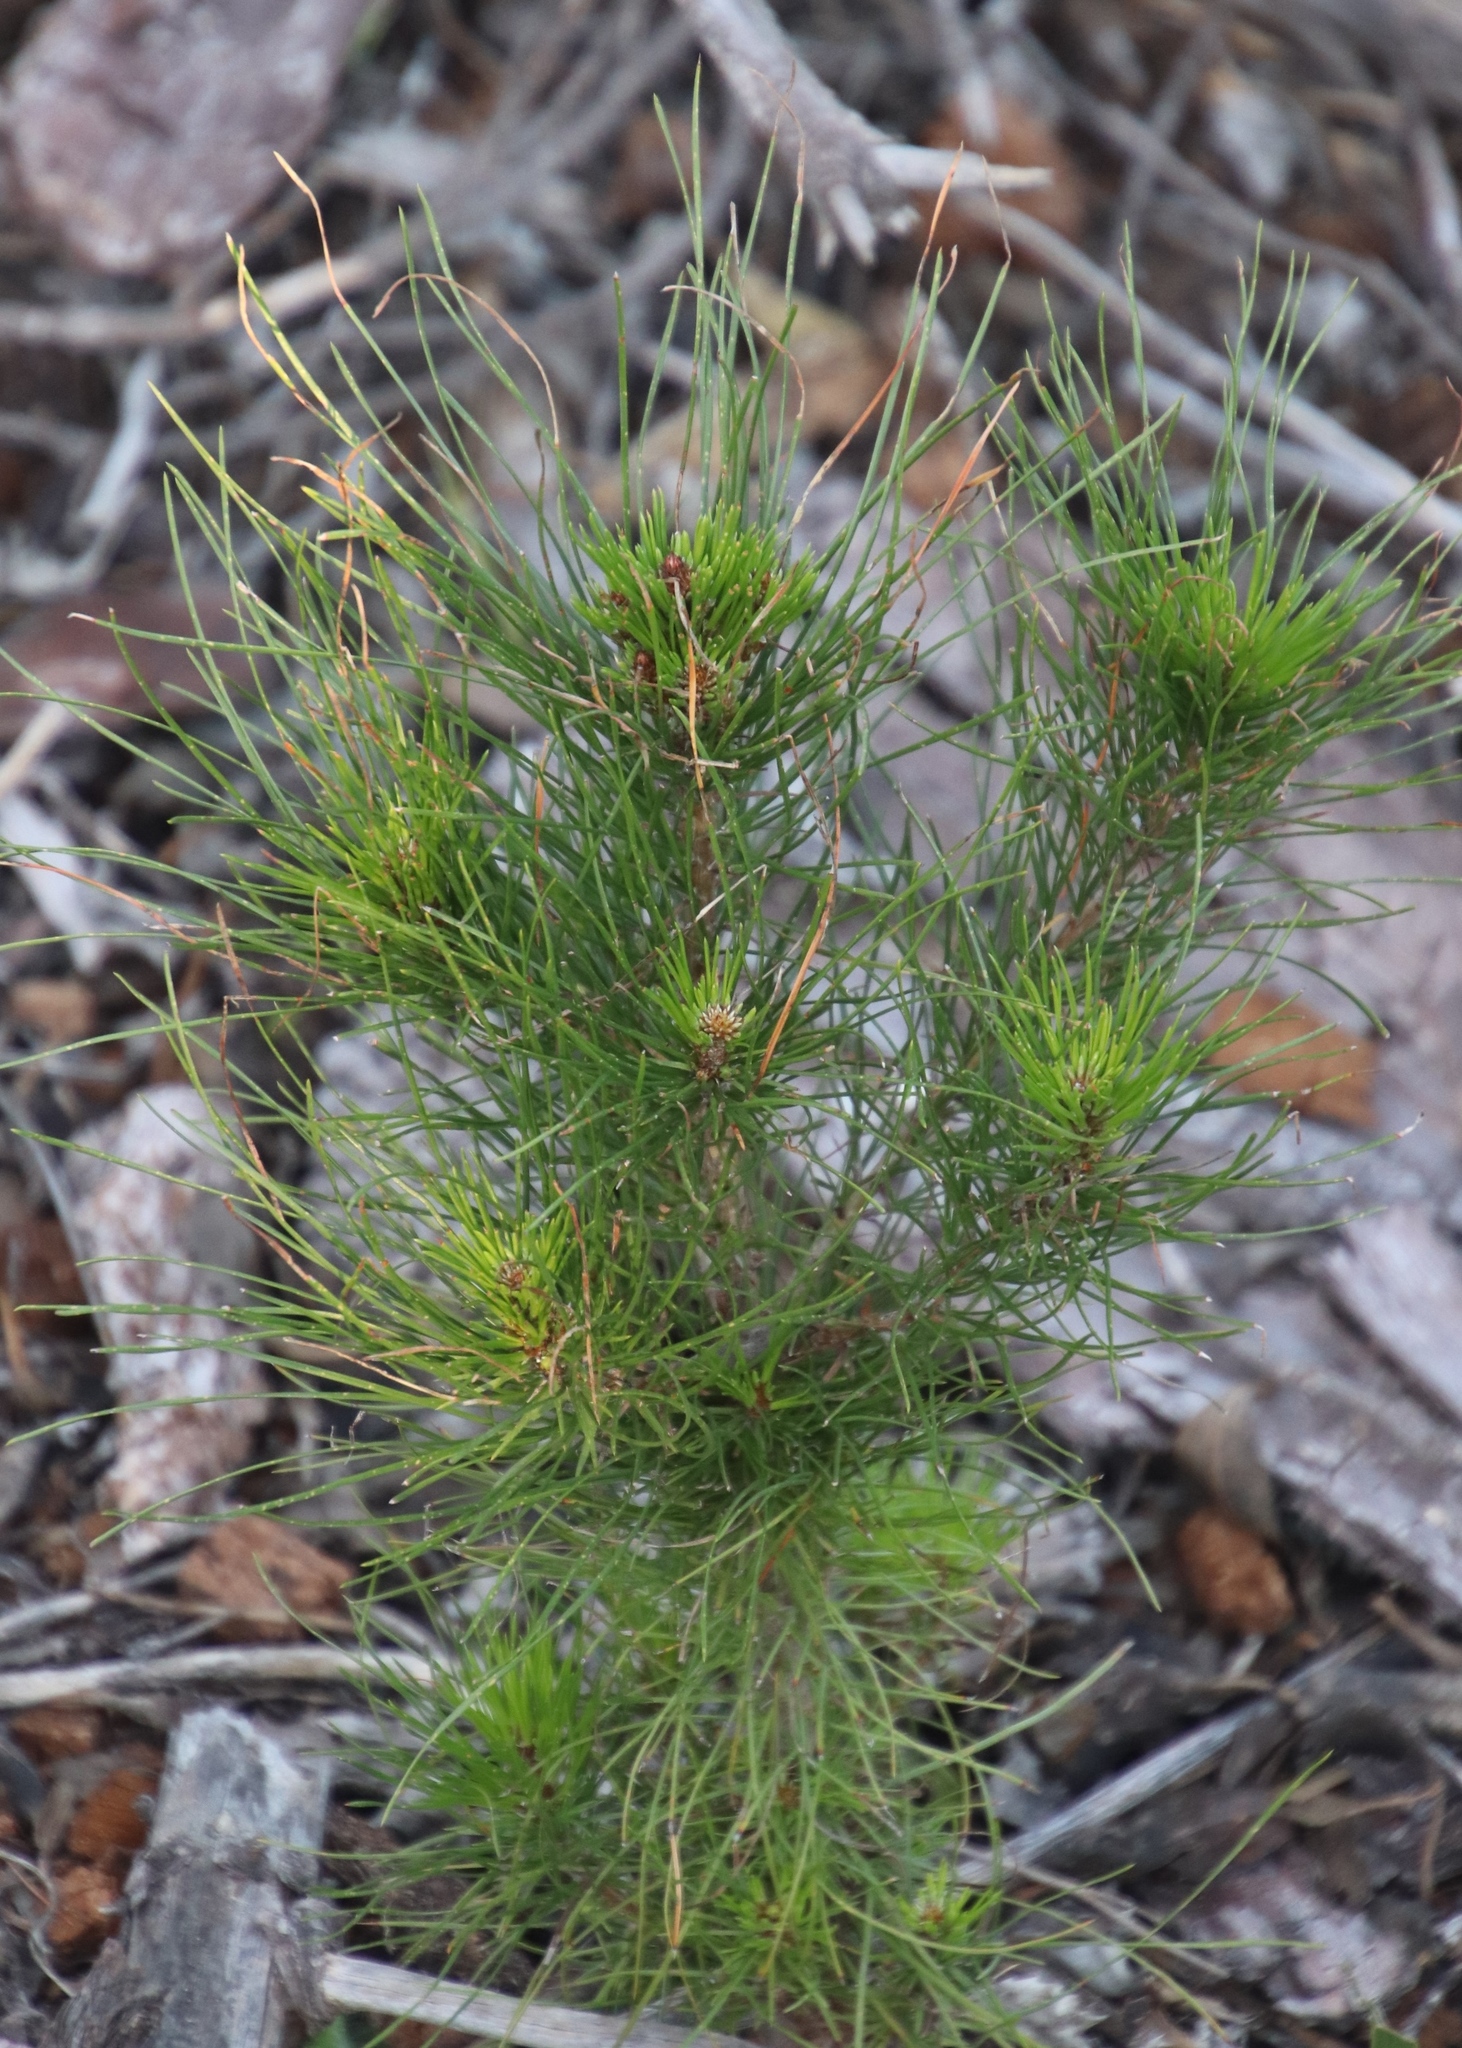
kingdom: Plantae
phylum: Tracheophyta
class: Pinopsida
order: Pinales
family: Pinaceae
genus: Pinus
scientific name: Pinus radiata
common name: Monterey pine
